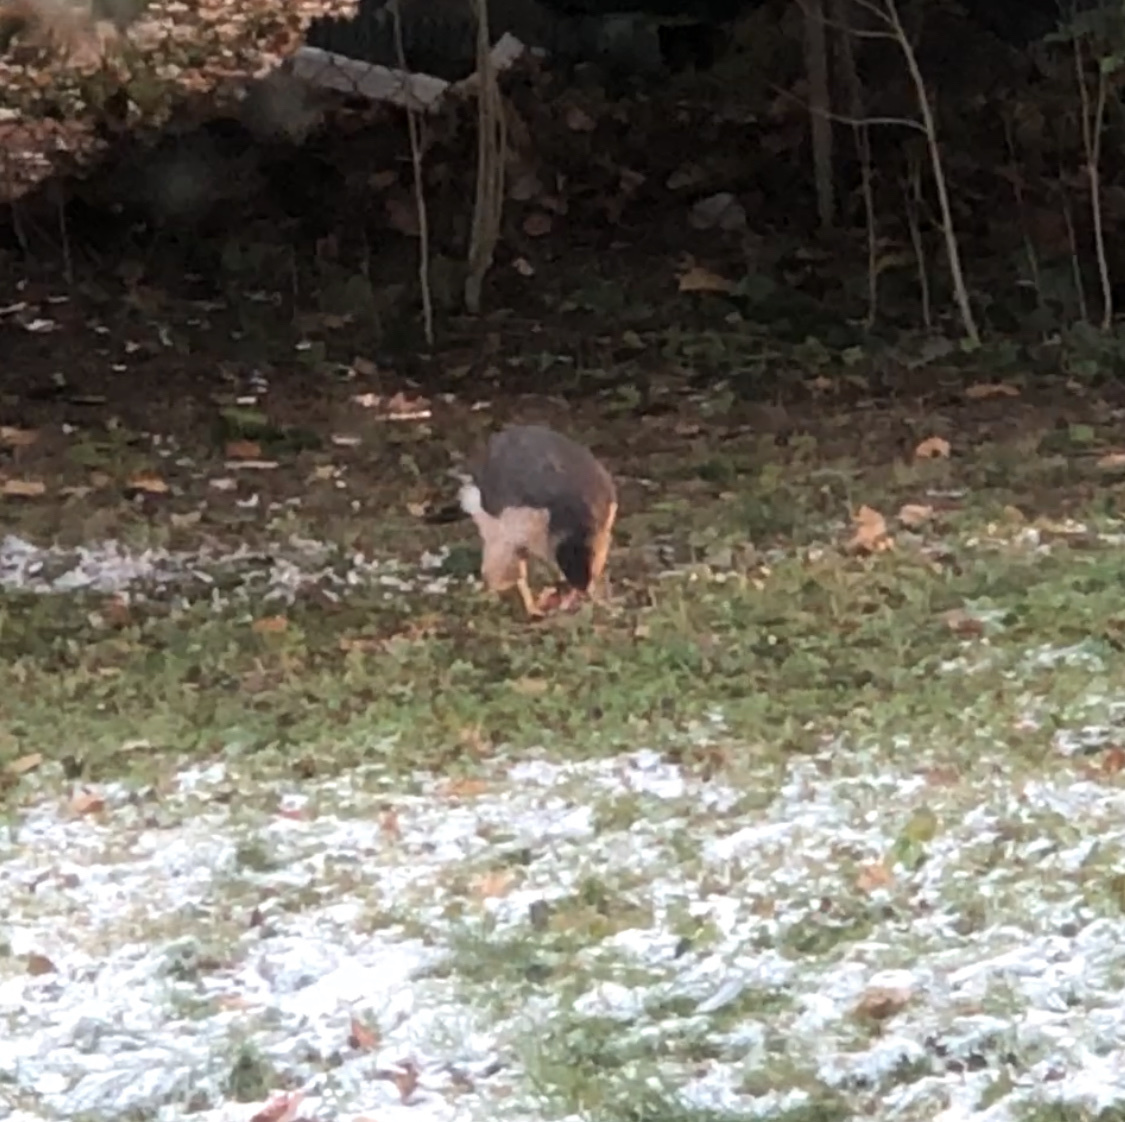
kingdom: Animalia
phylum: Chordata
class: Aves
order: Accipitriformes
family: Accipitridae
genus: Accipiter
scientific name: Accipiter cooperii
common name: Cooper's hawk
